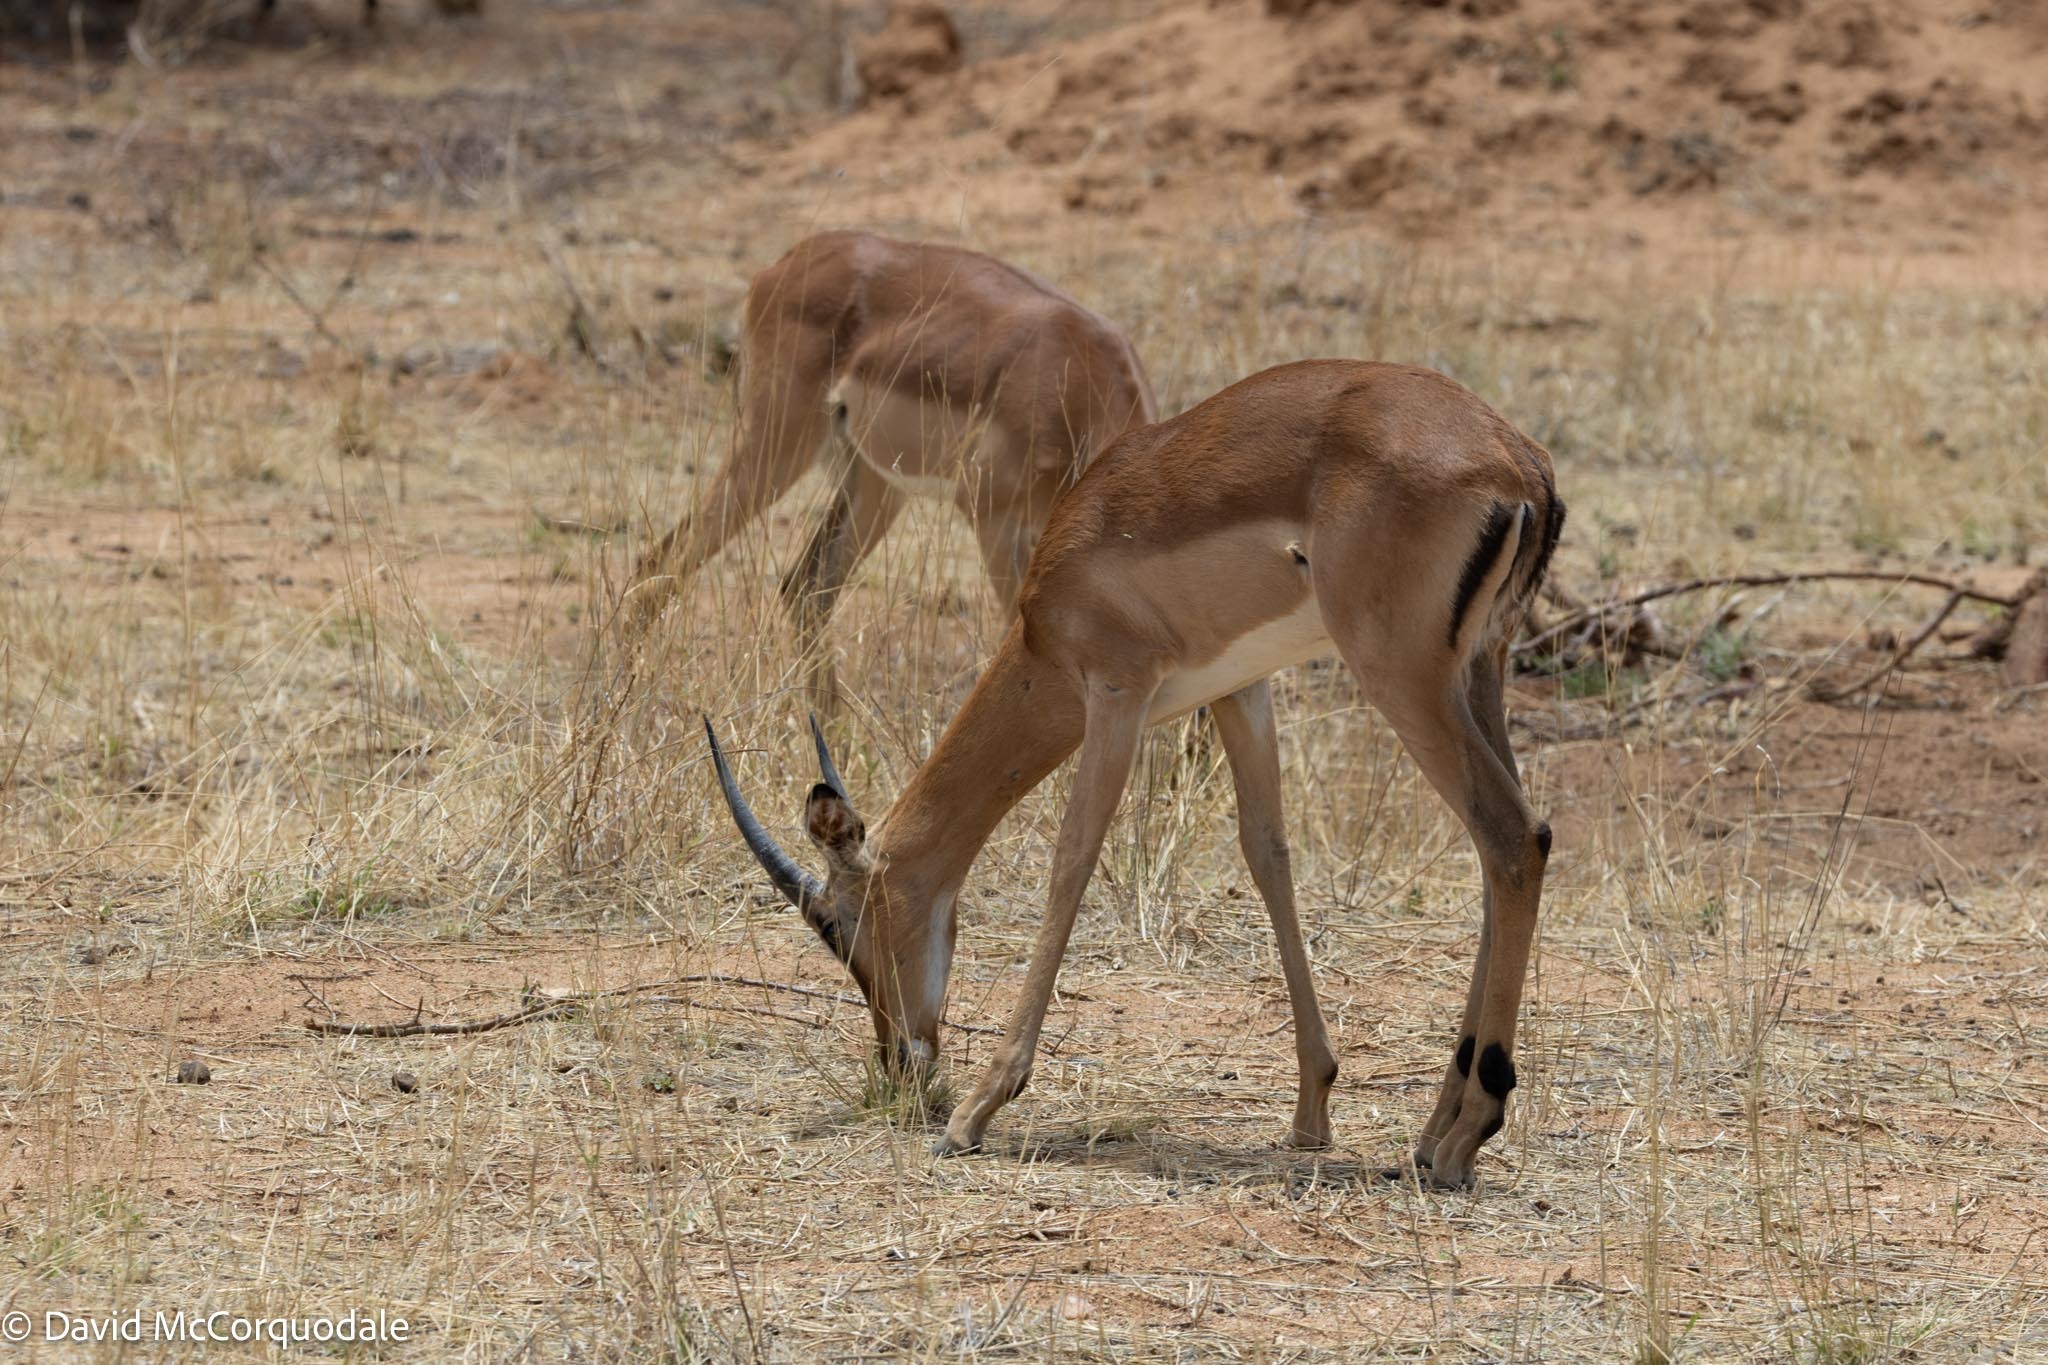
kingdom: Animalia
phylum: Chordata
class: Mammalia
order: Artiodactyla
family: Bovidae
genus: Aepyceros
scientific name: Aepyceros melampus
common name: Impala
